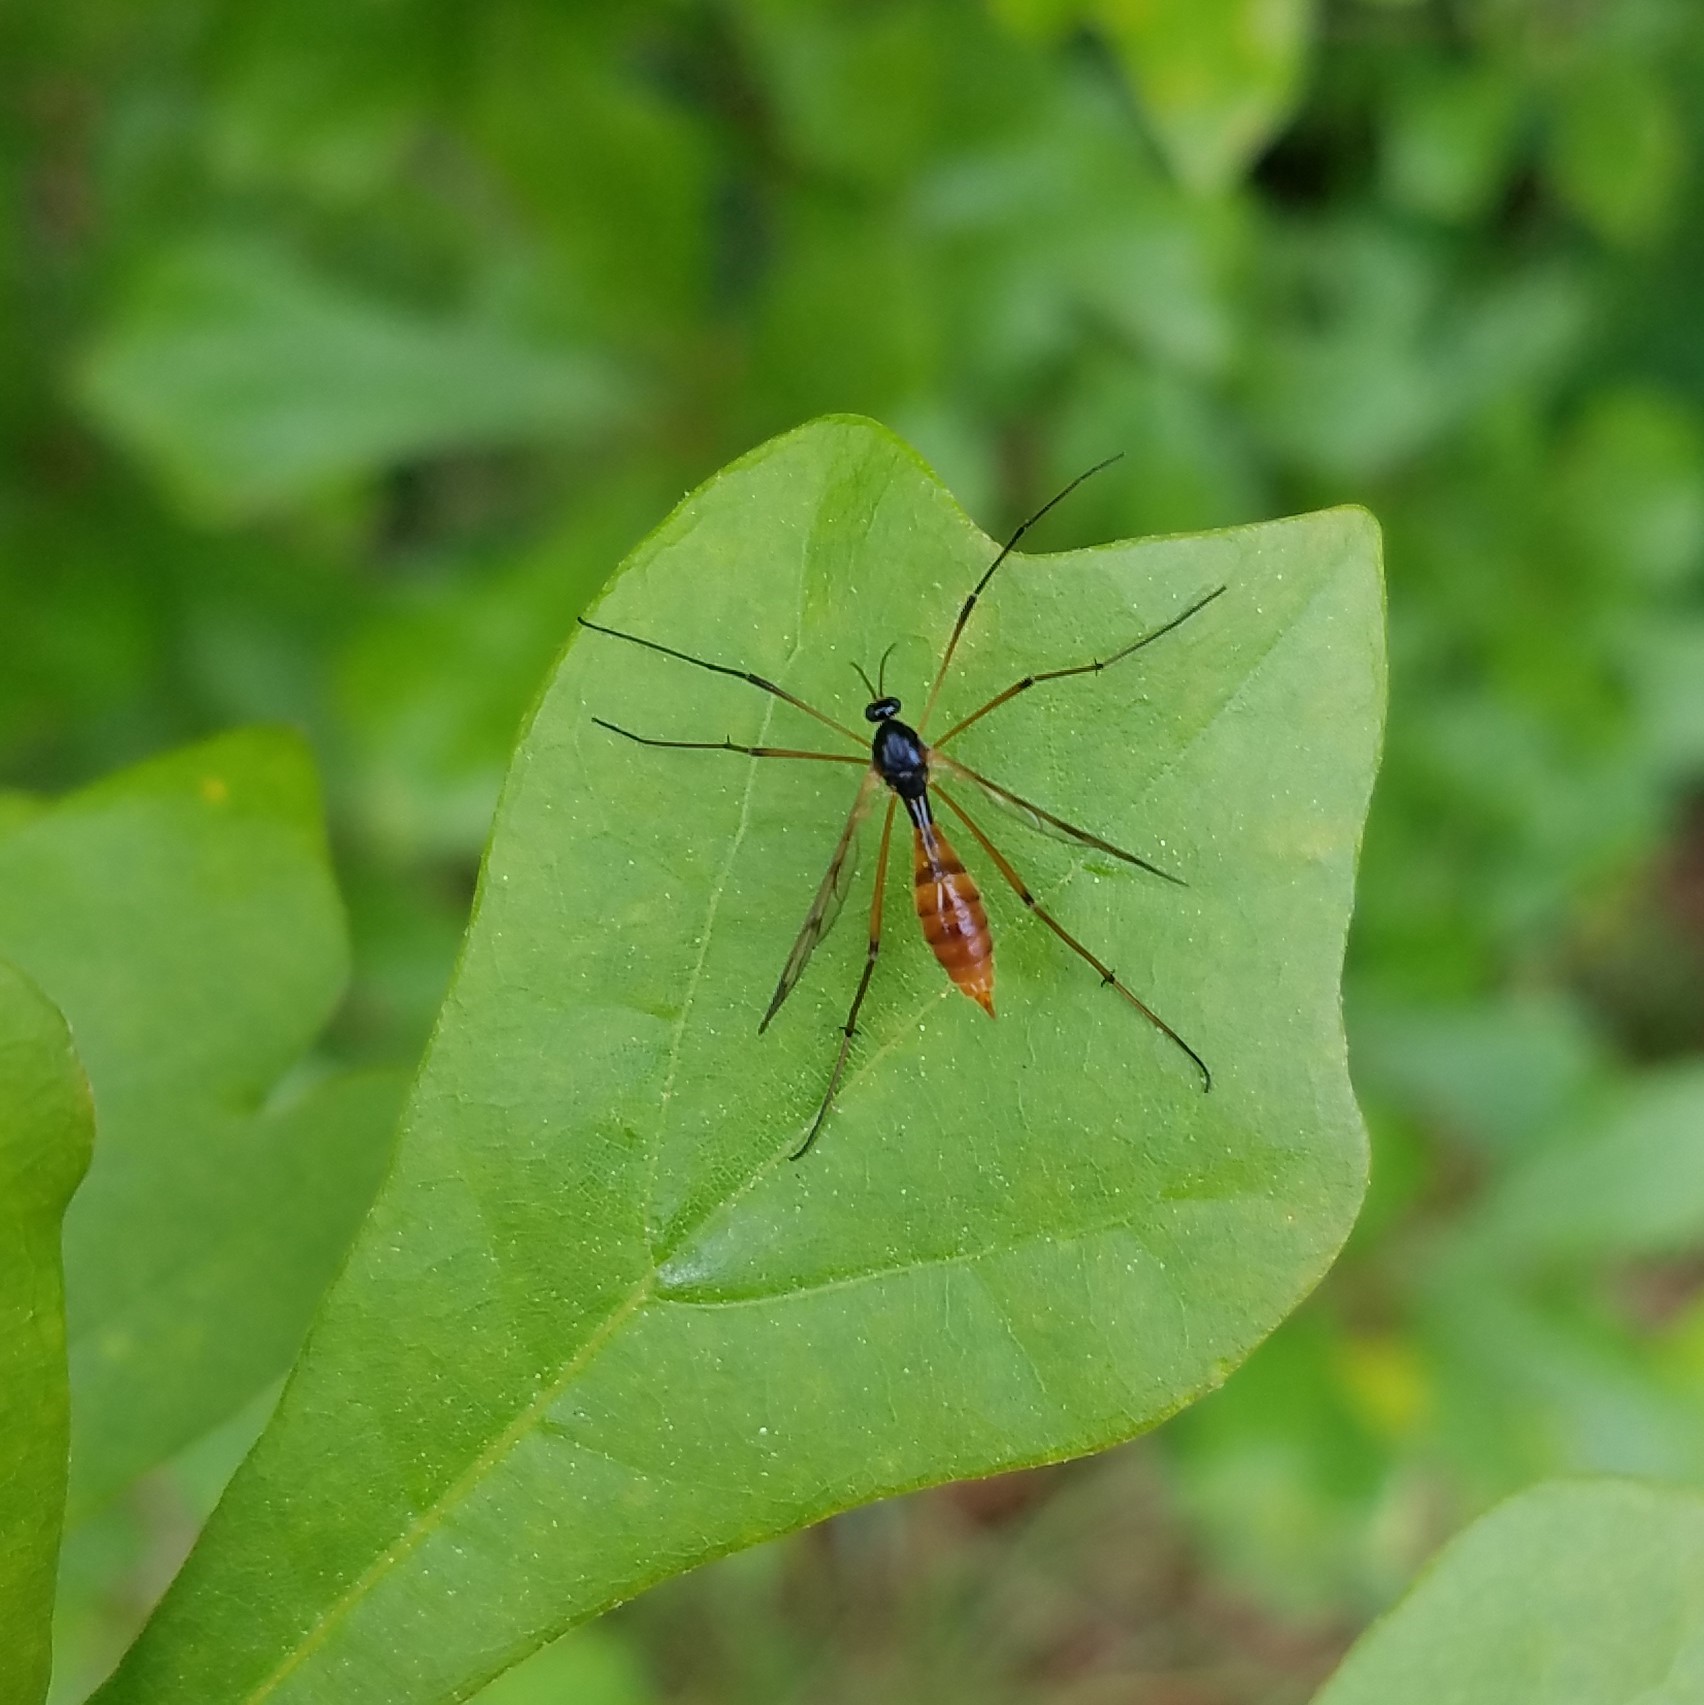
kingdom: Animalia
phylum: Arthropoda
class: Insecta
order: Diptera
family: Ptychopteridae
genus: Ptychoptera
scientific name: Ptychoptera
